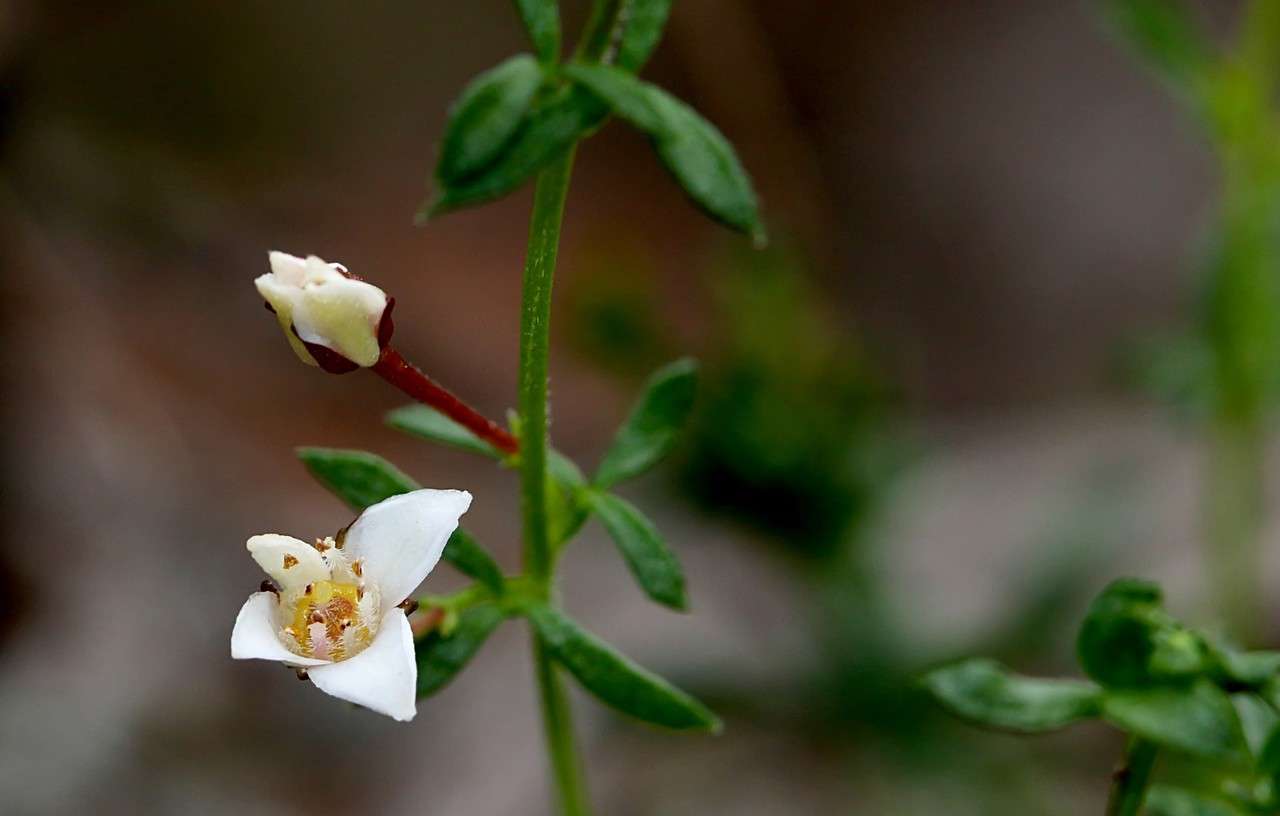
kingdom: Plantae
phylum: Tracheophyta
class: Magnoliopsida
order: Sapindales
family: Rutaceae
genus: Cyanothamnus
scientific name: Cyanothamnus nanus
